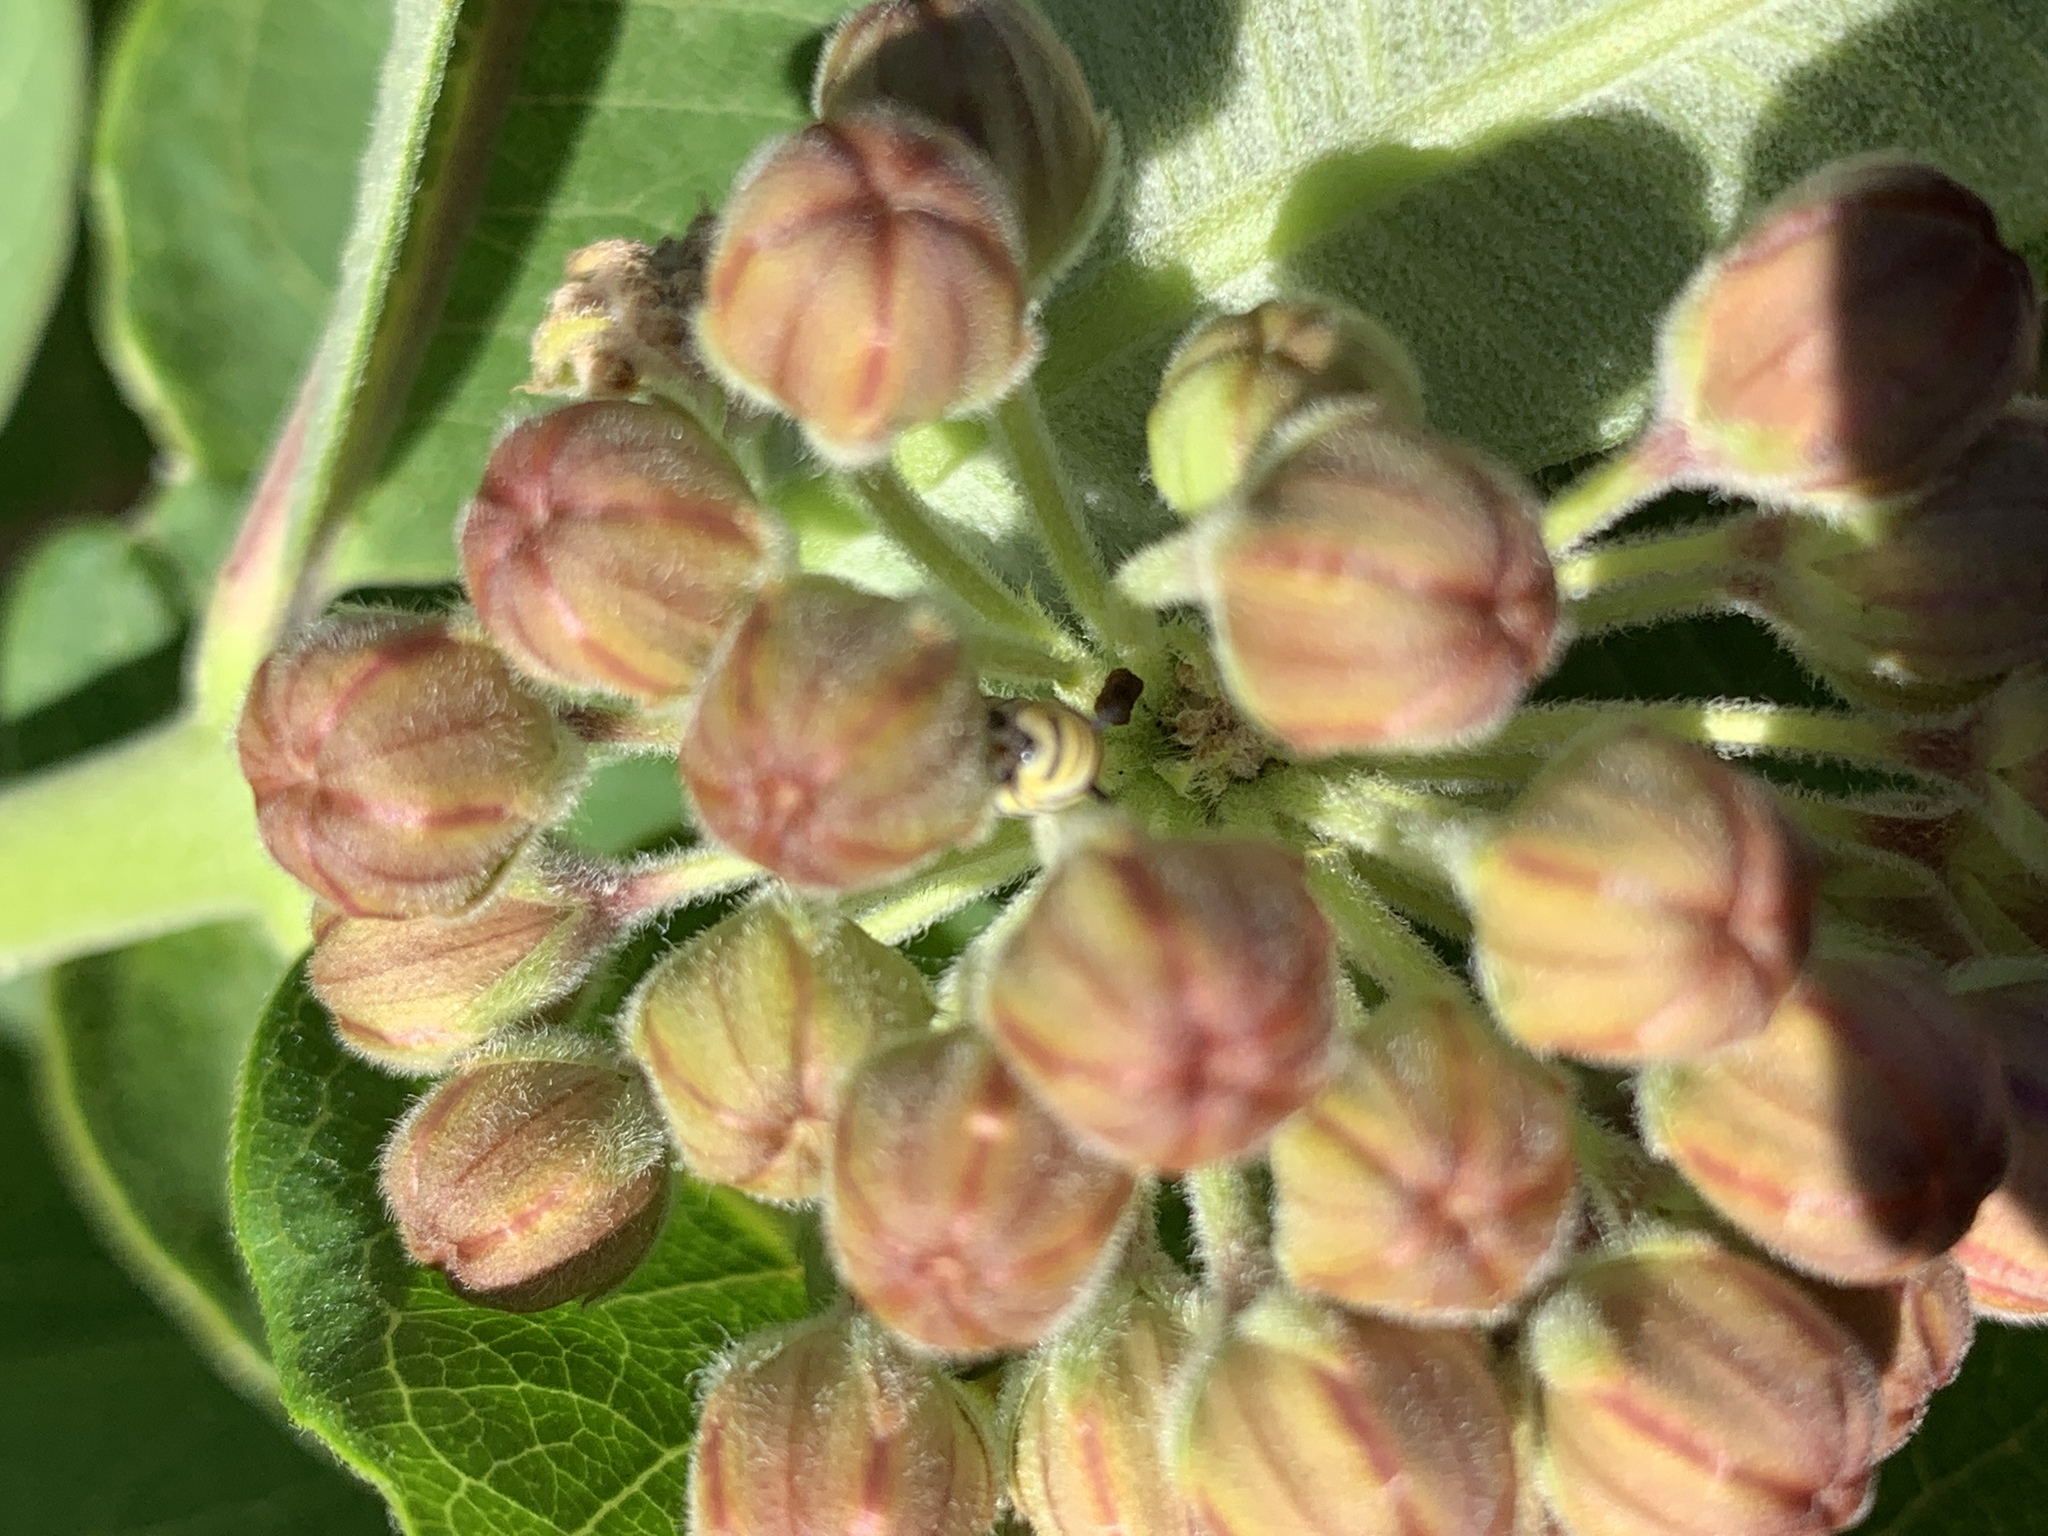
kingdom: Animalia
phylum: Arthropoda
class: Insecta
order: Lepidoptera
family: Nymphalidae
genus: Danaus
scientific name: Danaus plexippus
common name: Monarch
